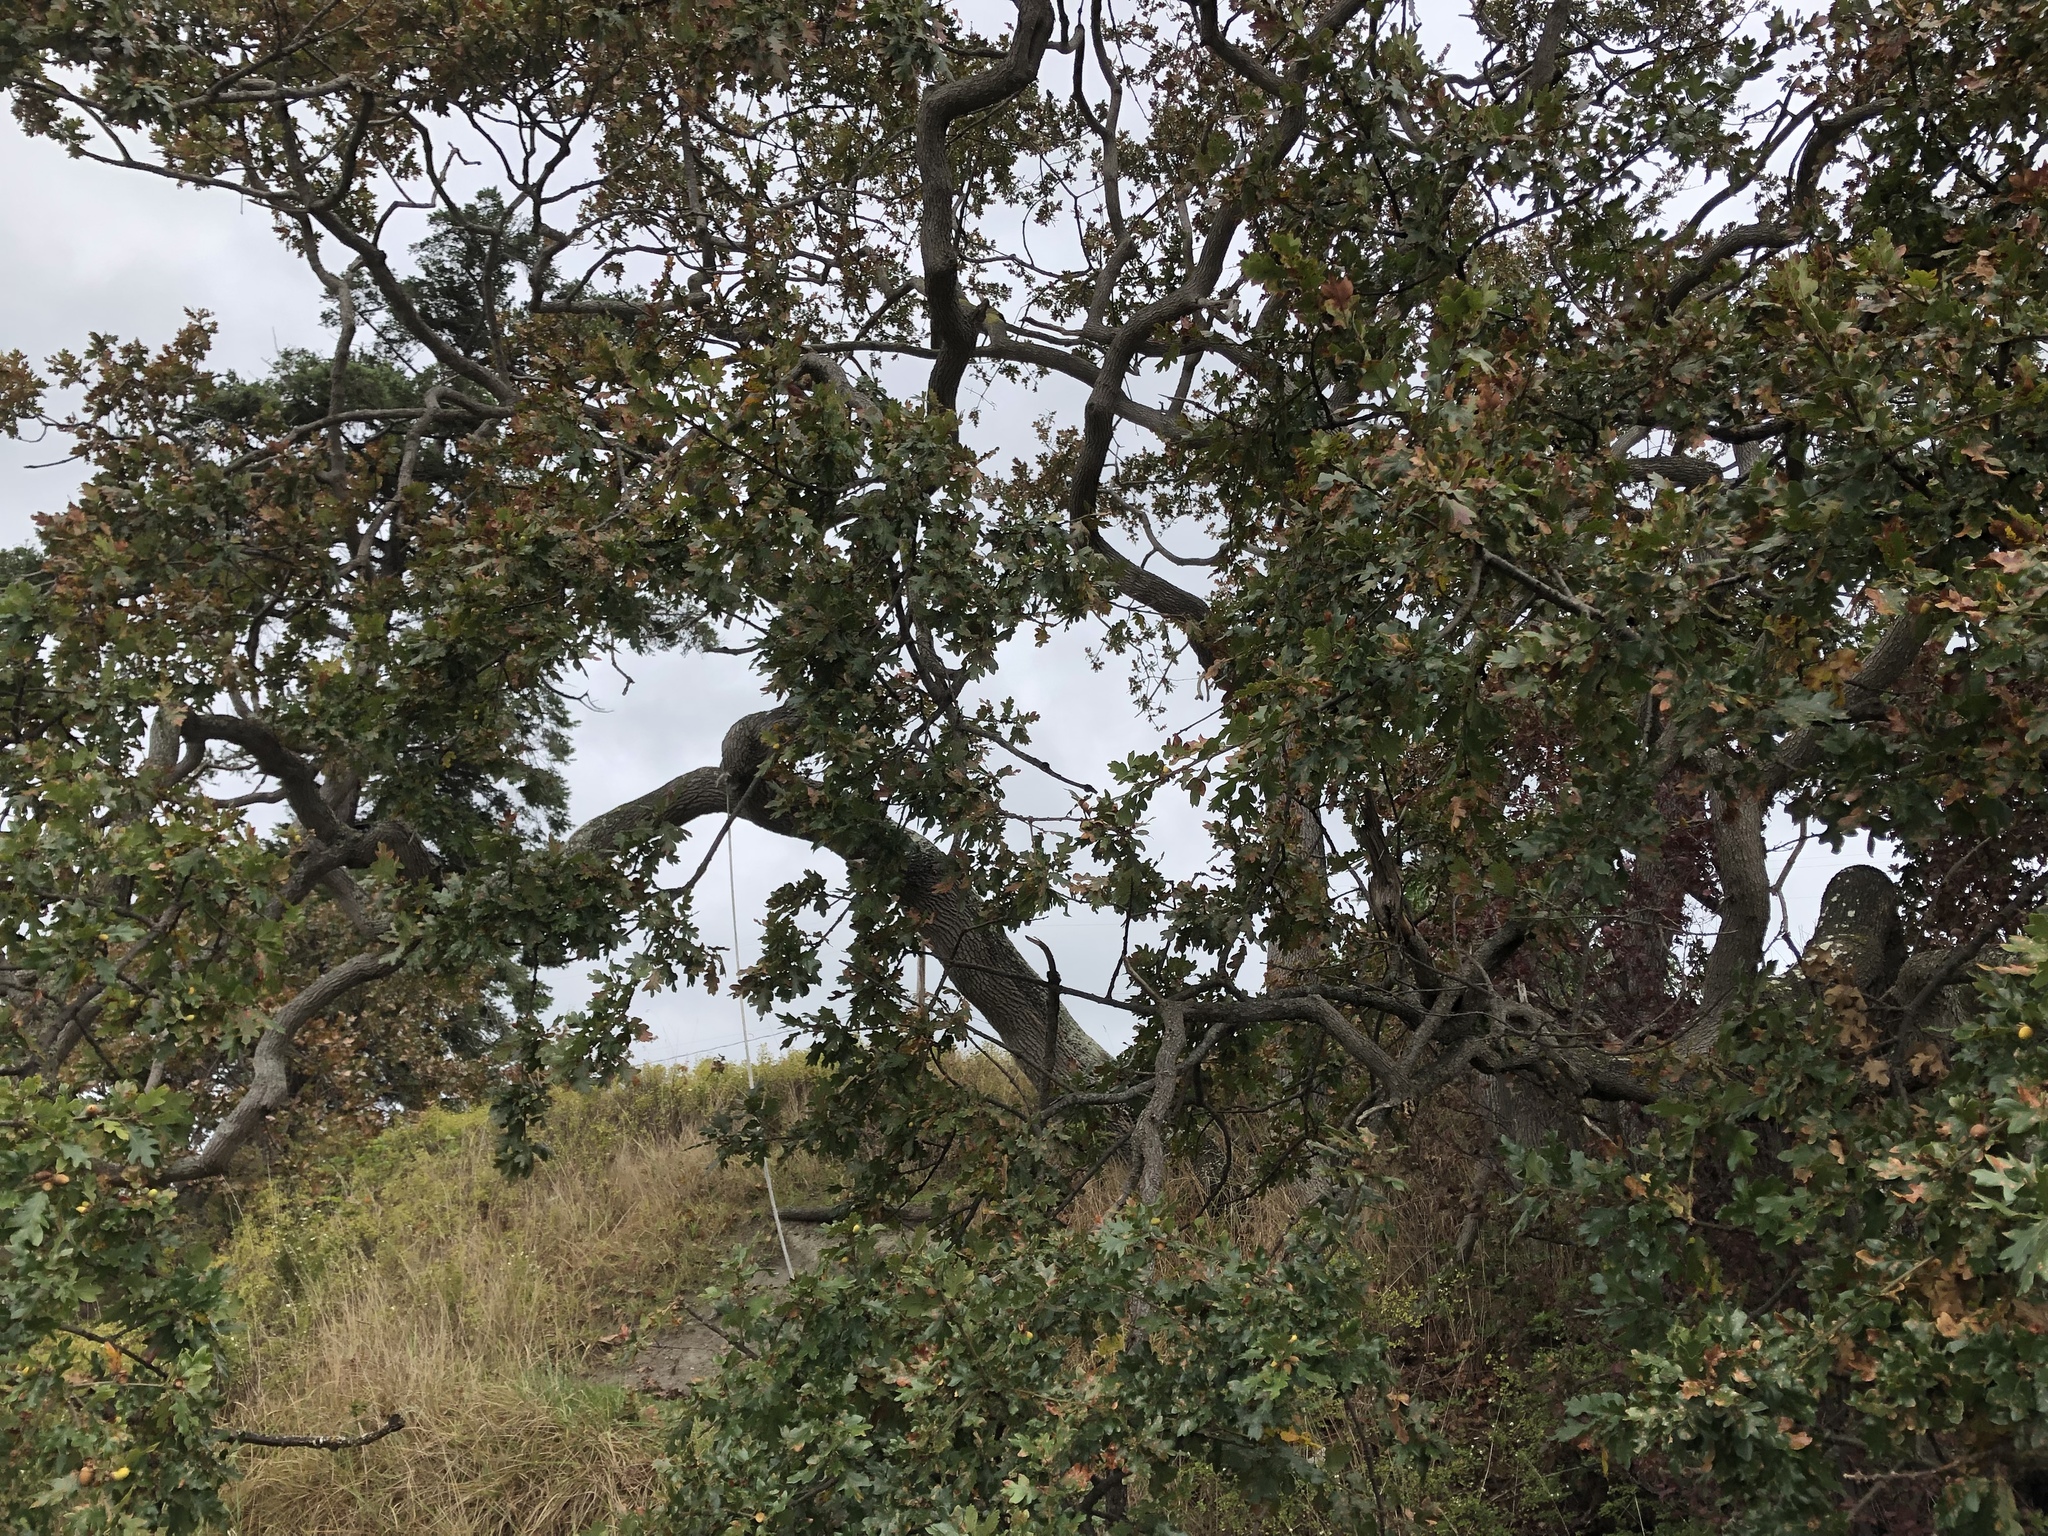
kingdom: Plantae
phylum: Tracheophyta
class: Magnoliopsida
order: Fagales
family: Fagaceae
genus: Quercus
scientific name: Quercus garryana
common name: Garry oak
